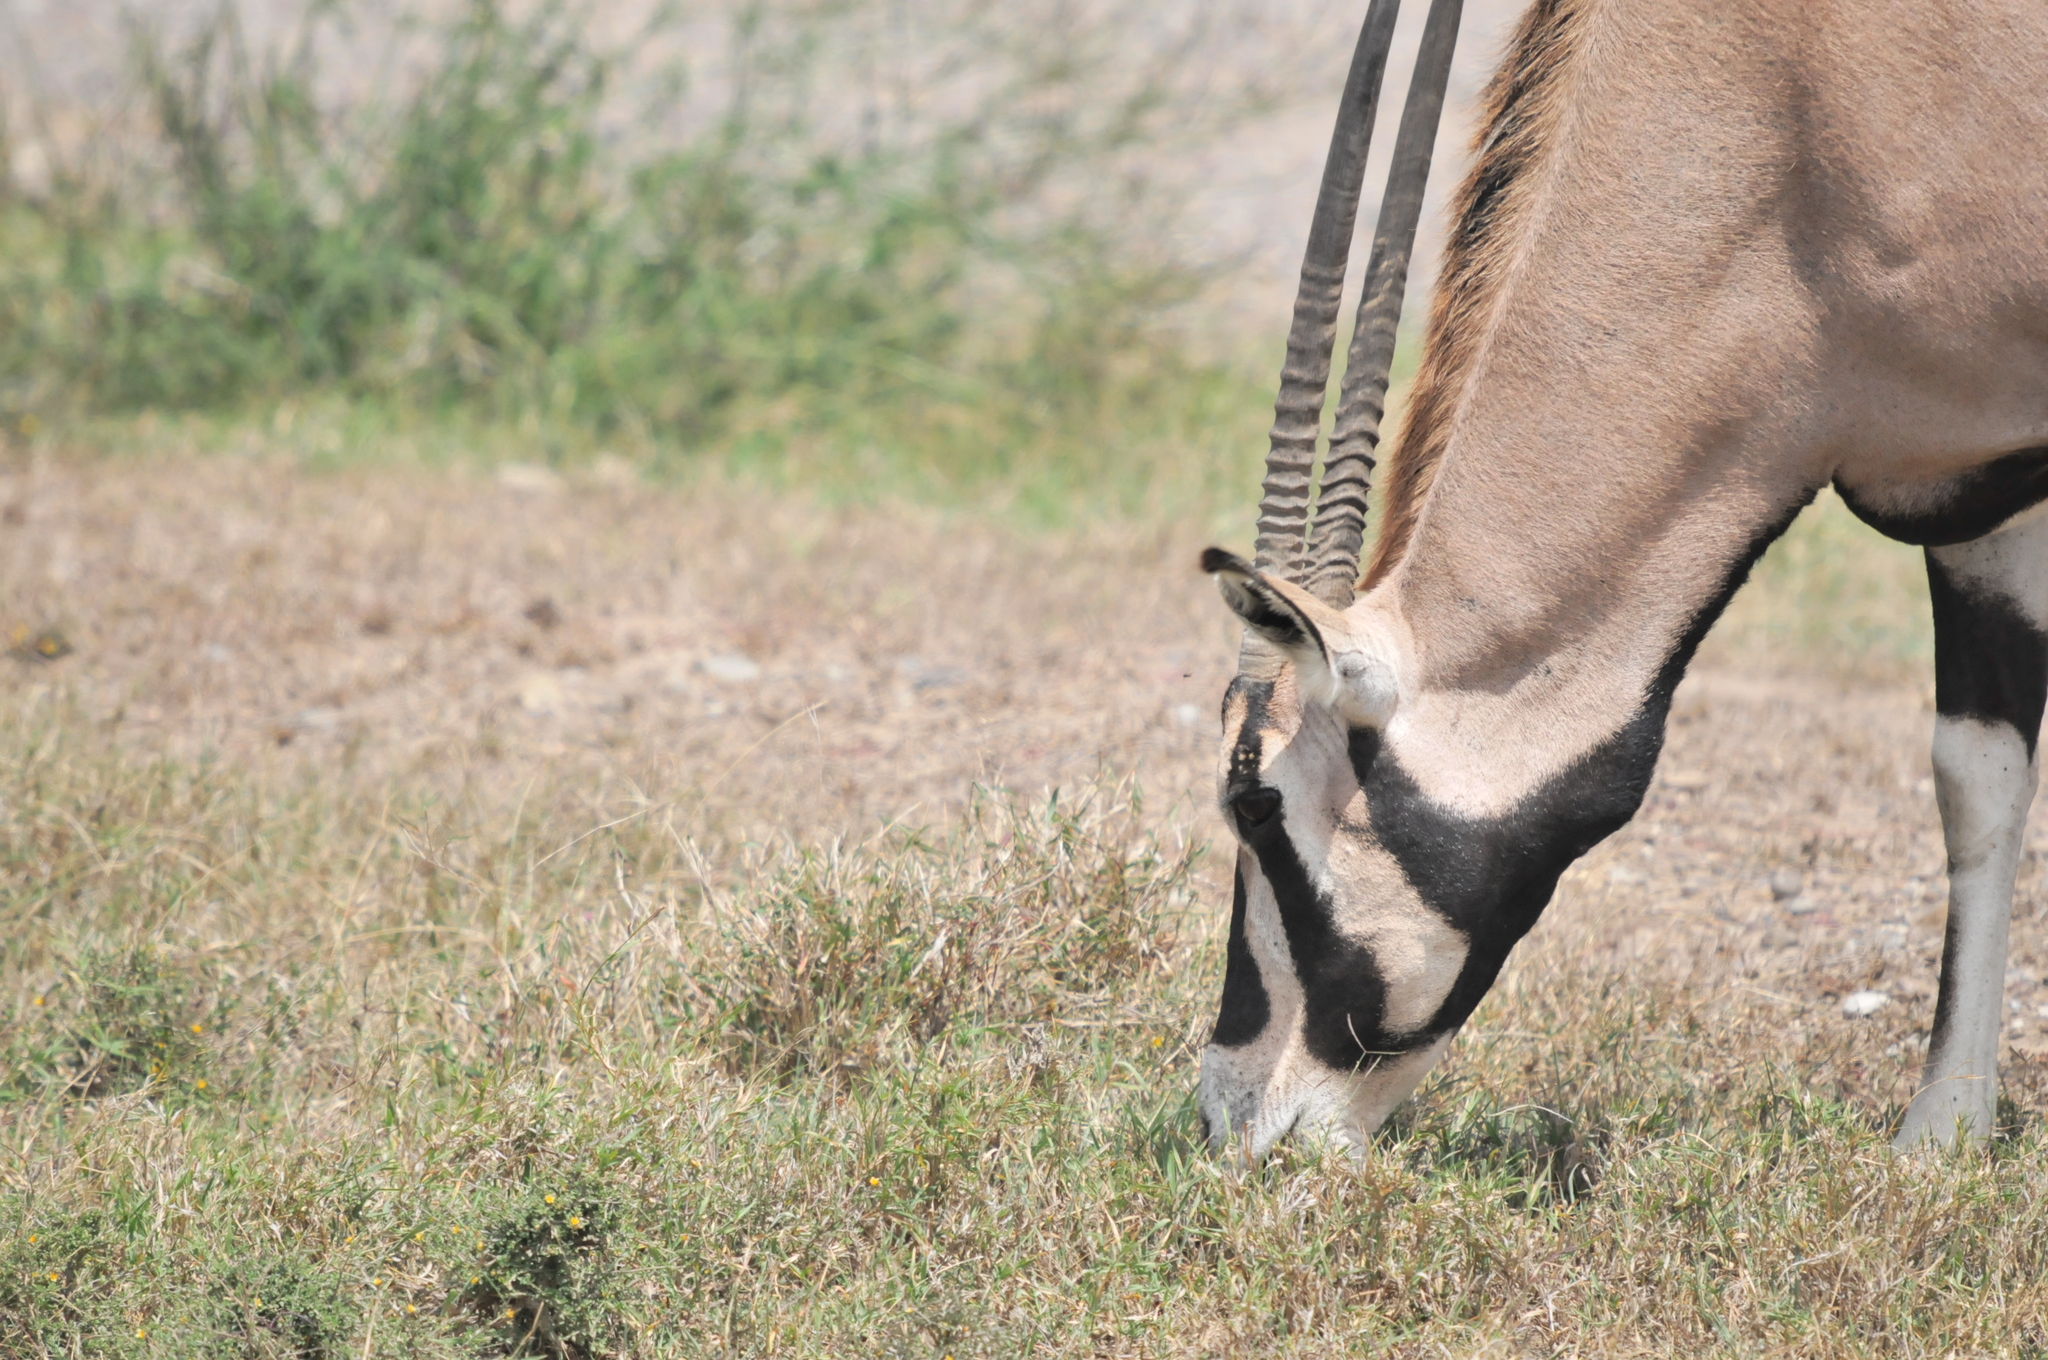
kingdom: Animalia
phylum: Chordata
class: Mammalia
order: Artiodactyla
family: Bovidae
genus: Oryx
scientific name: Oryx beisa
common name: Beisa
